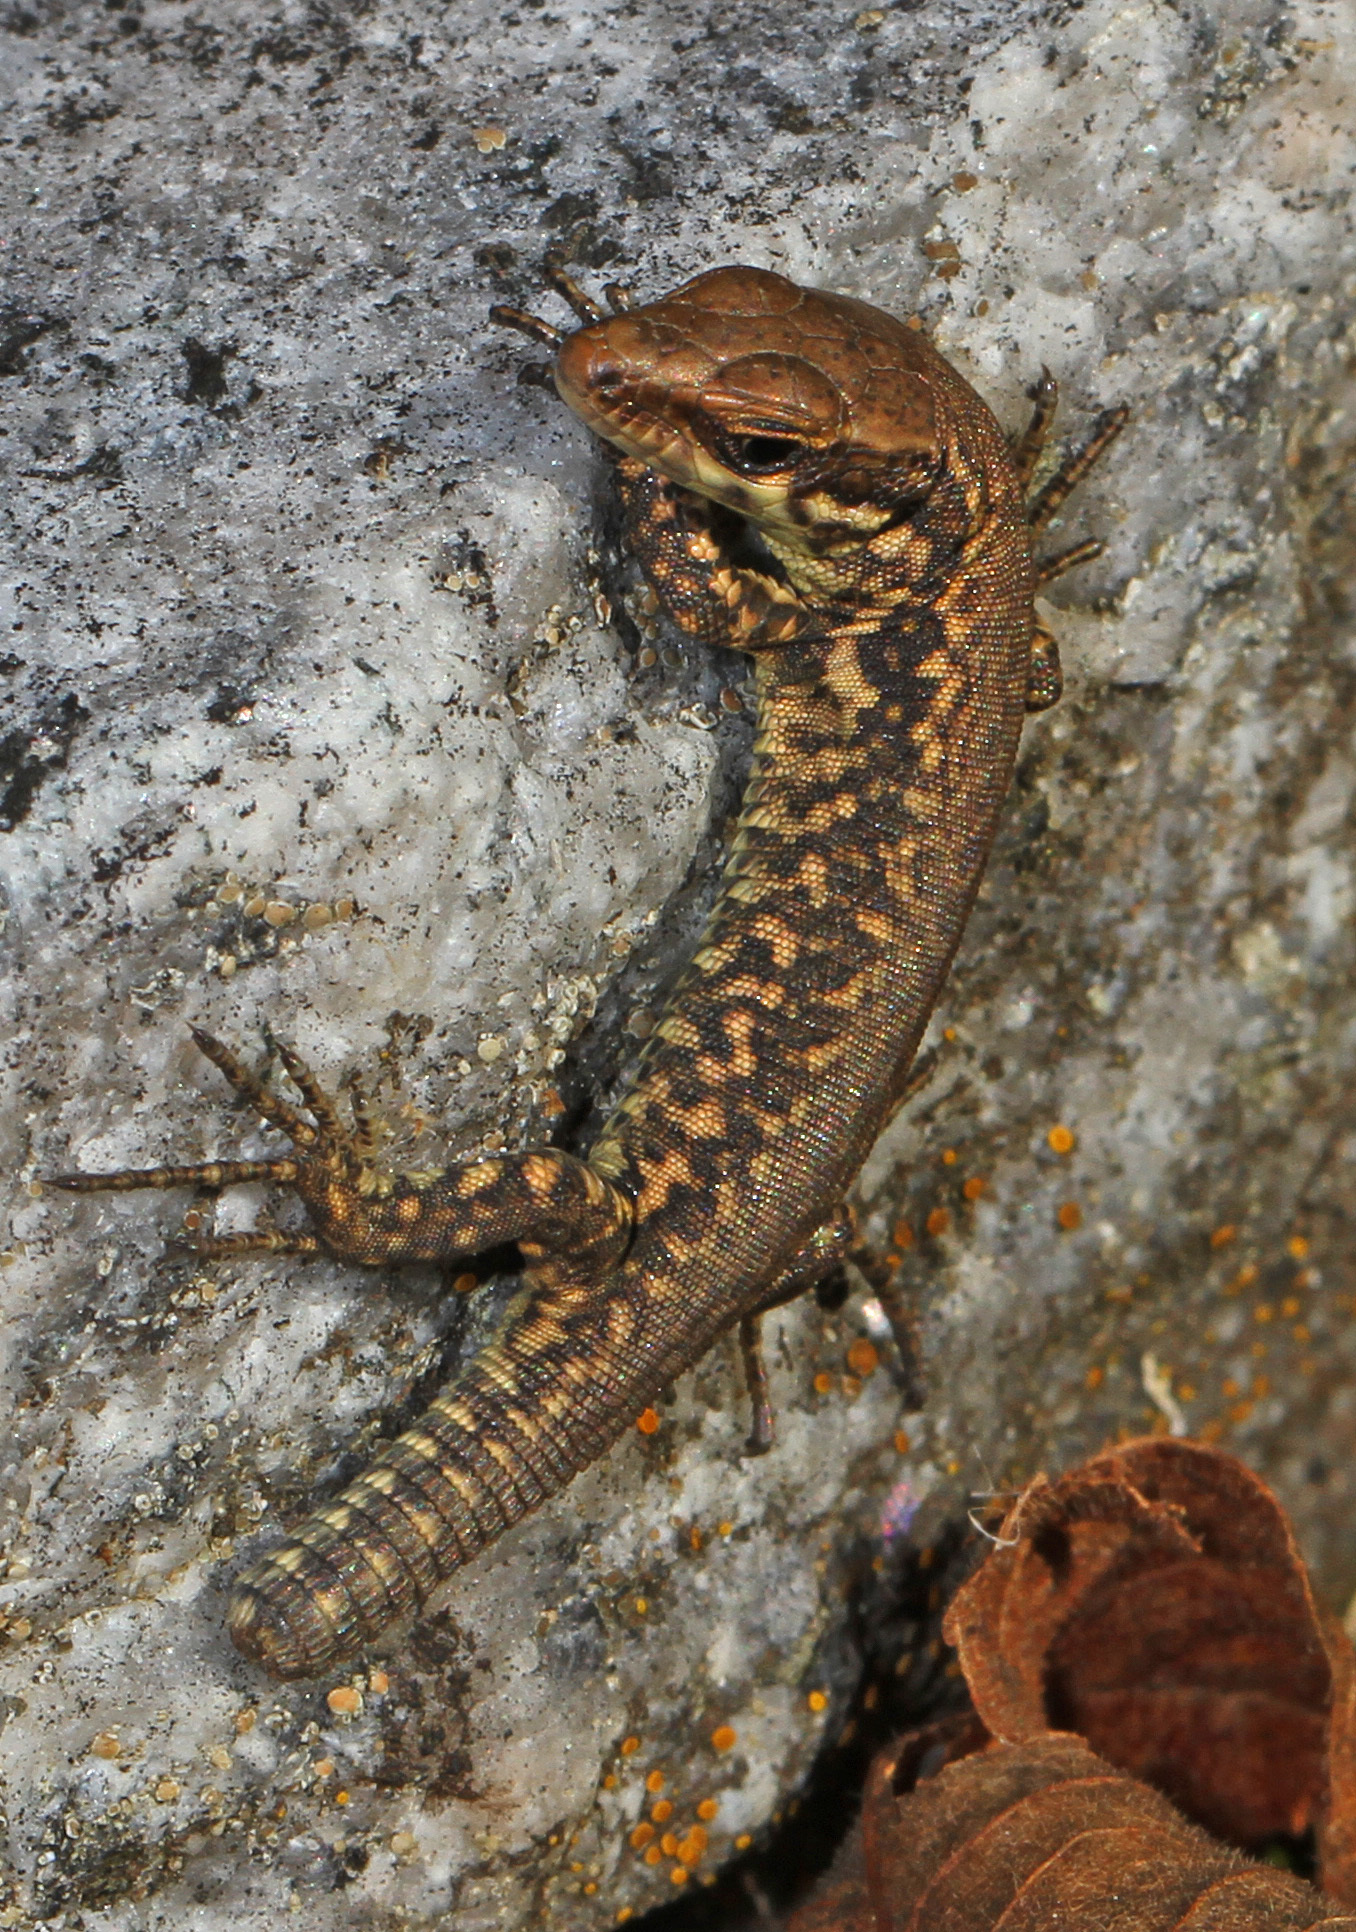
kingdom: Animalia
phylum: Chordata
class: Squamata
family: Lacertidae
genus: Podarcis
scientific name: Podarcis muralis
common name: Common wall lizard
